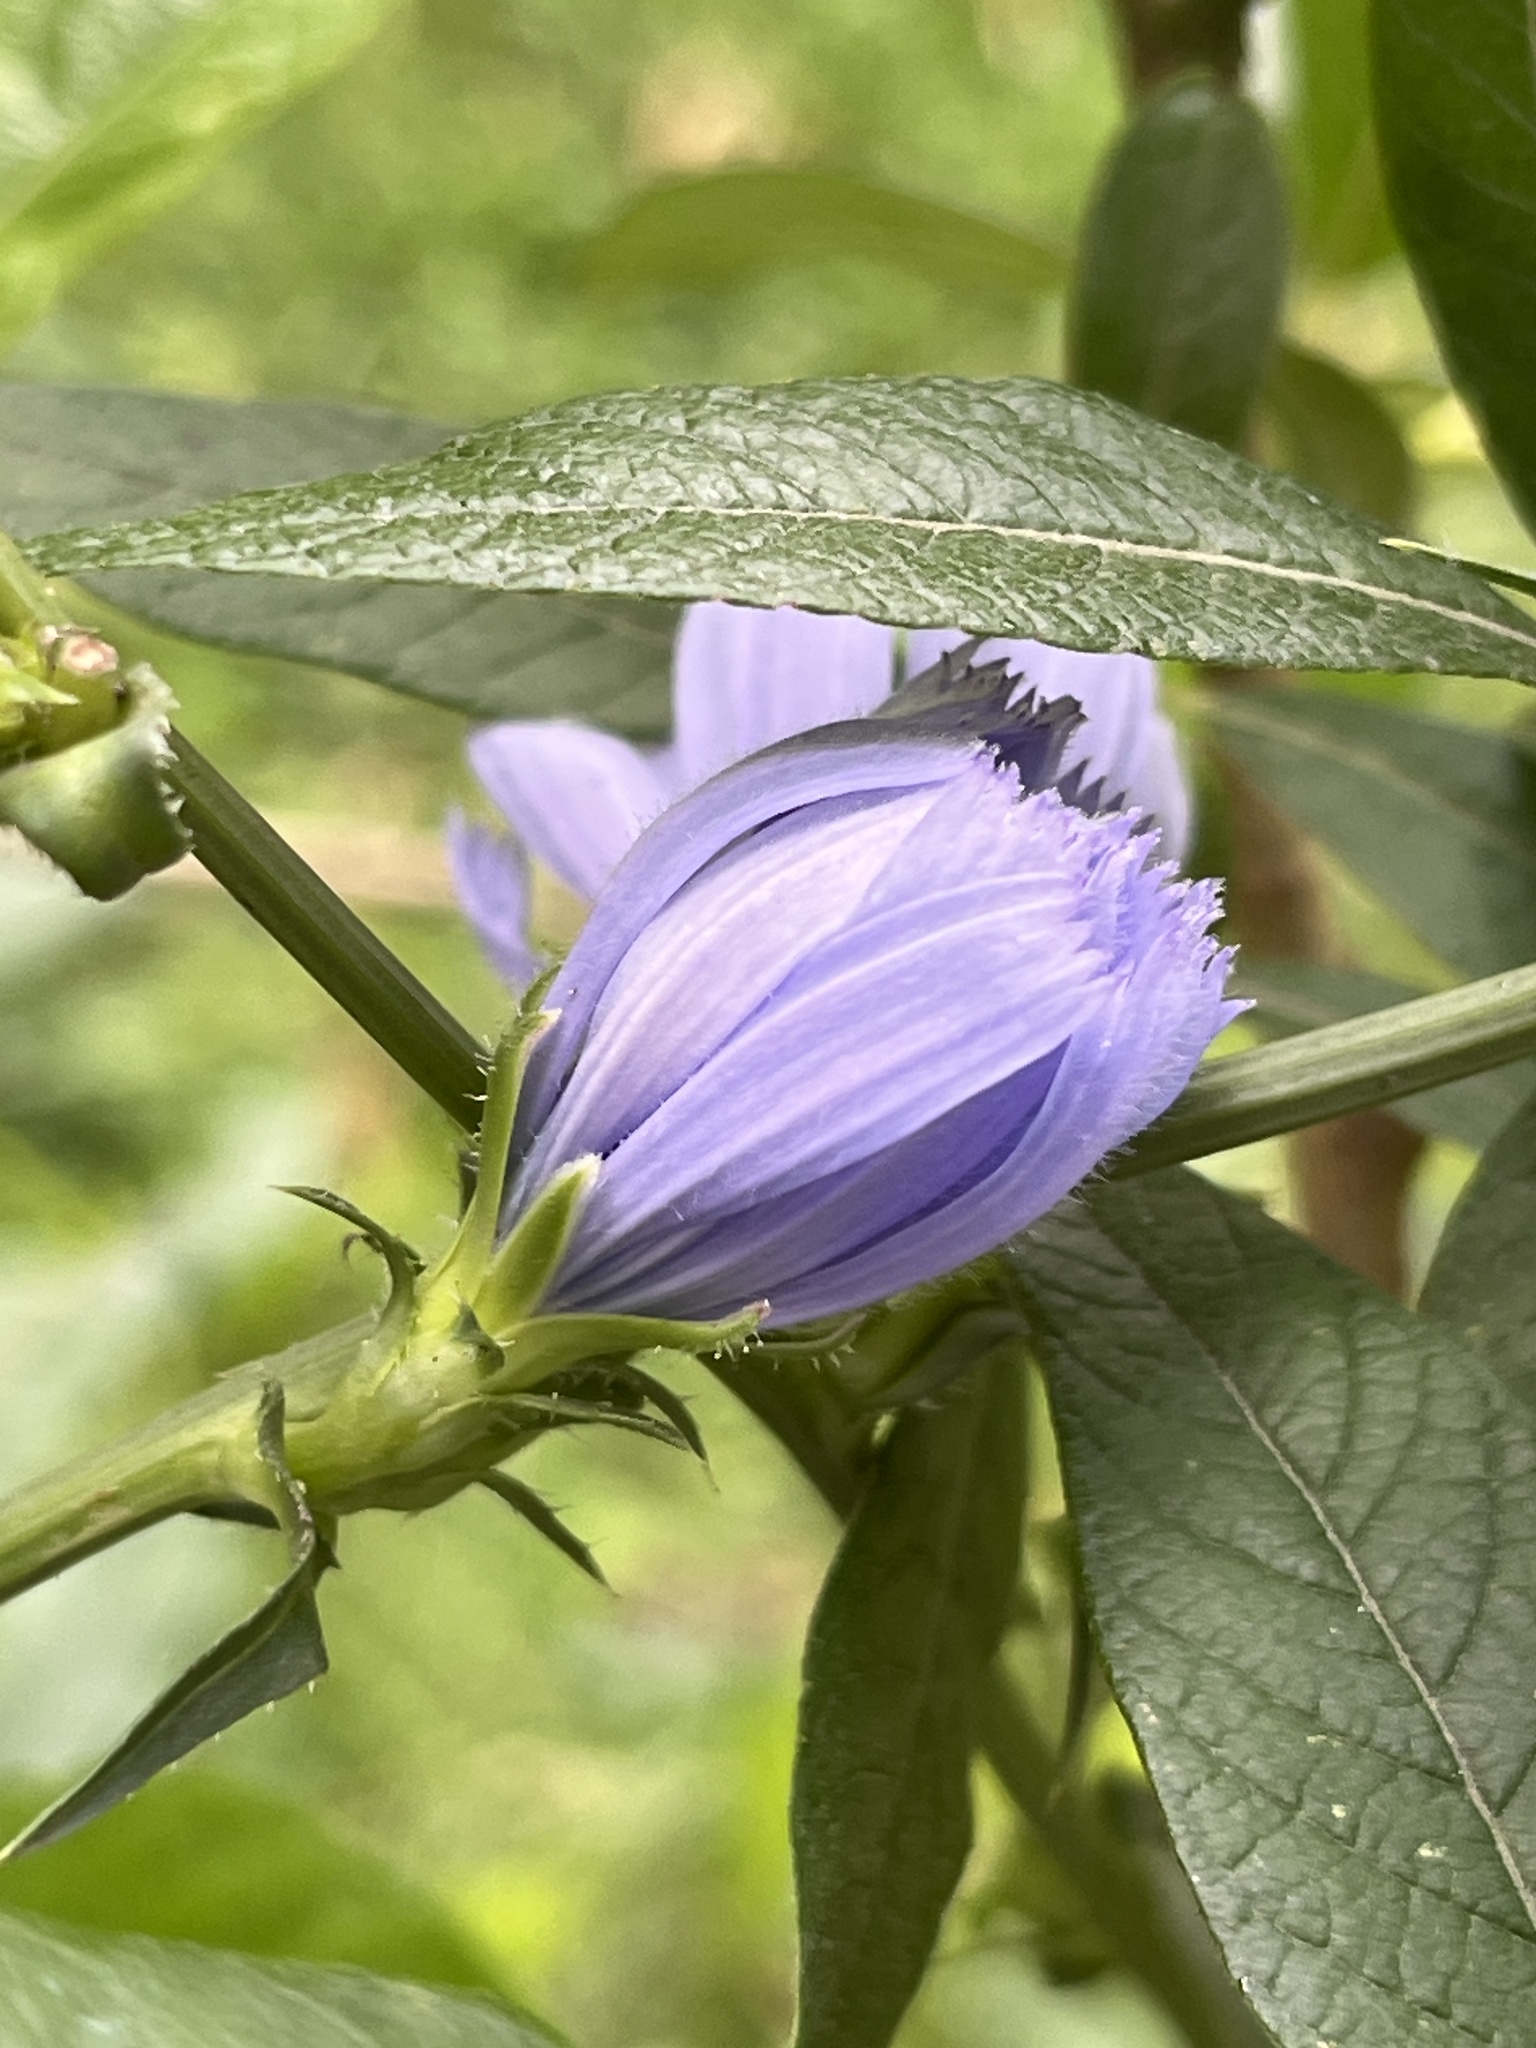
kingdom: Plantae
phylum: Tracheophyta
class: Magnoliopsida
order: Asterales
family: Asteraceae
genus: Cichorium
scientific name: Cichorium intybus
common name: Chicory
